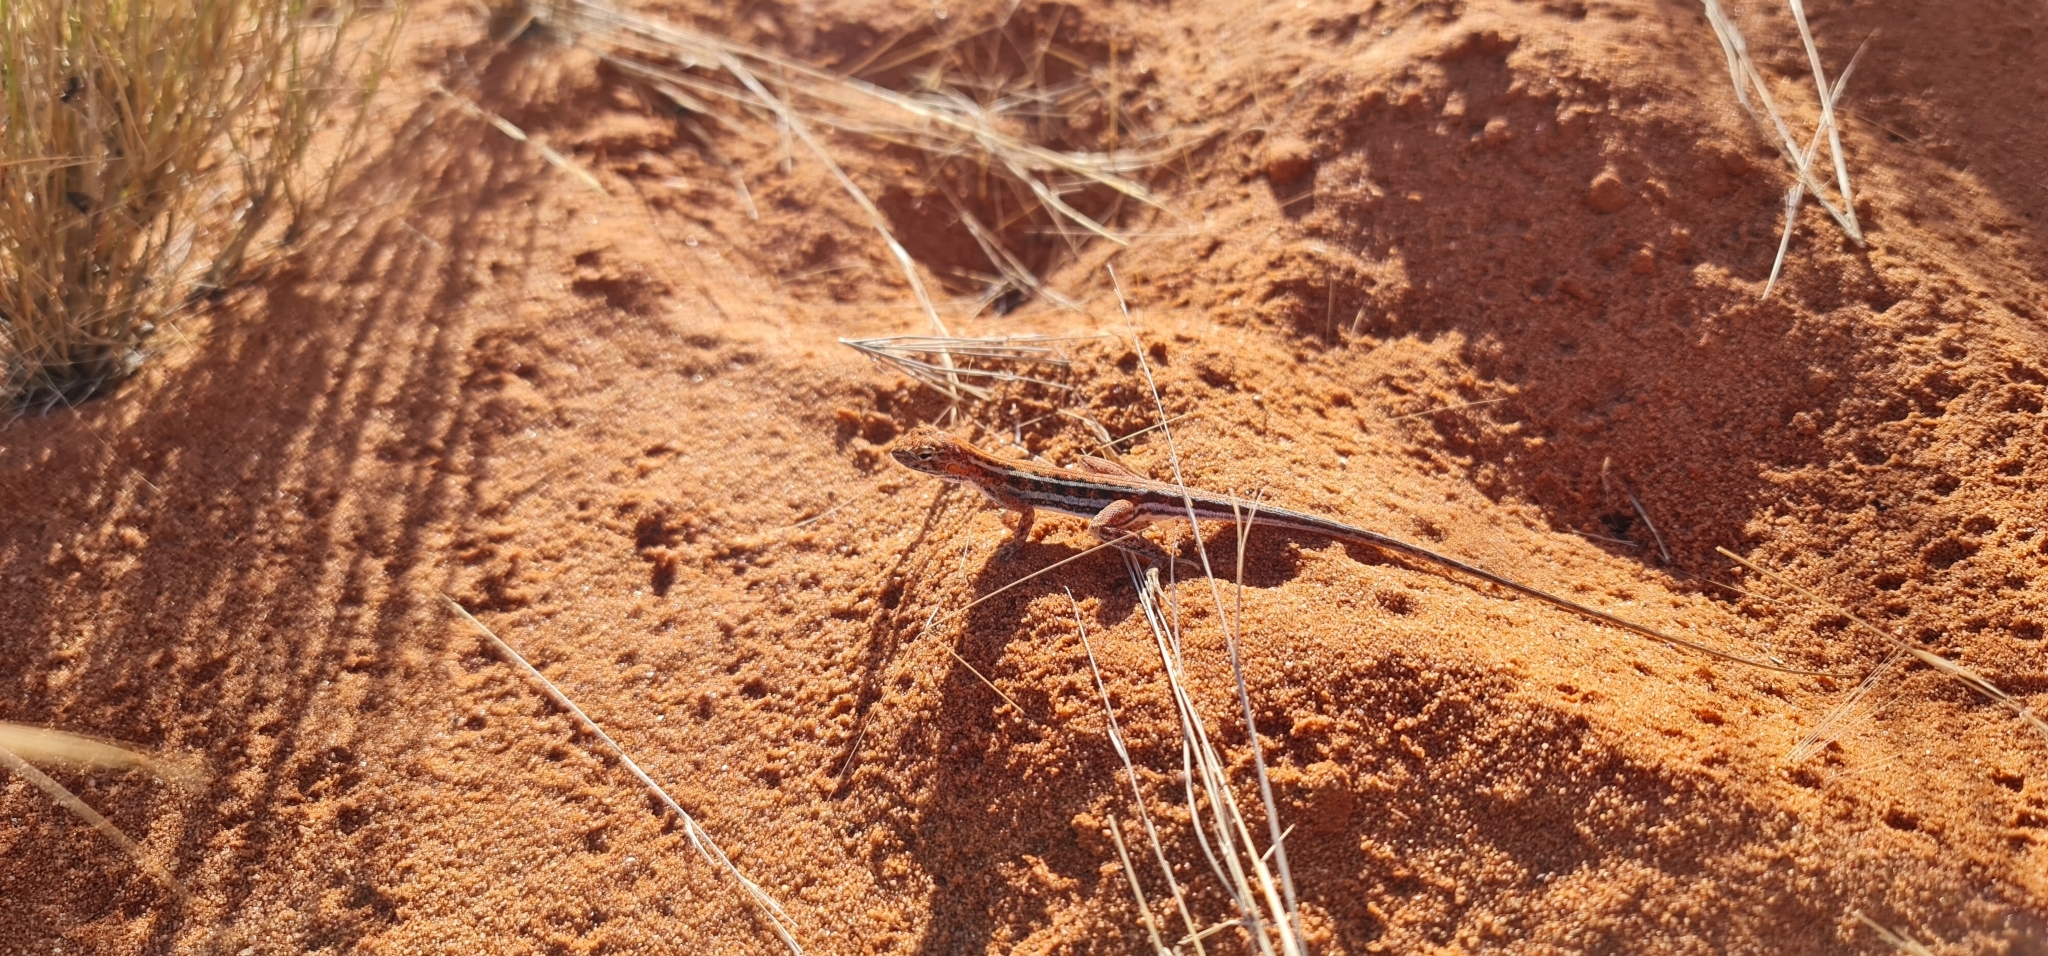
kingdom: Animalia
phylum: Chordata
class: Squamata
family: Agamidae
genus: Ctenophorus
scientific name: Ctenophorus
